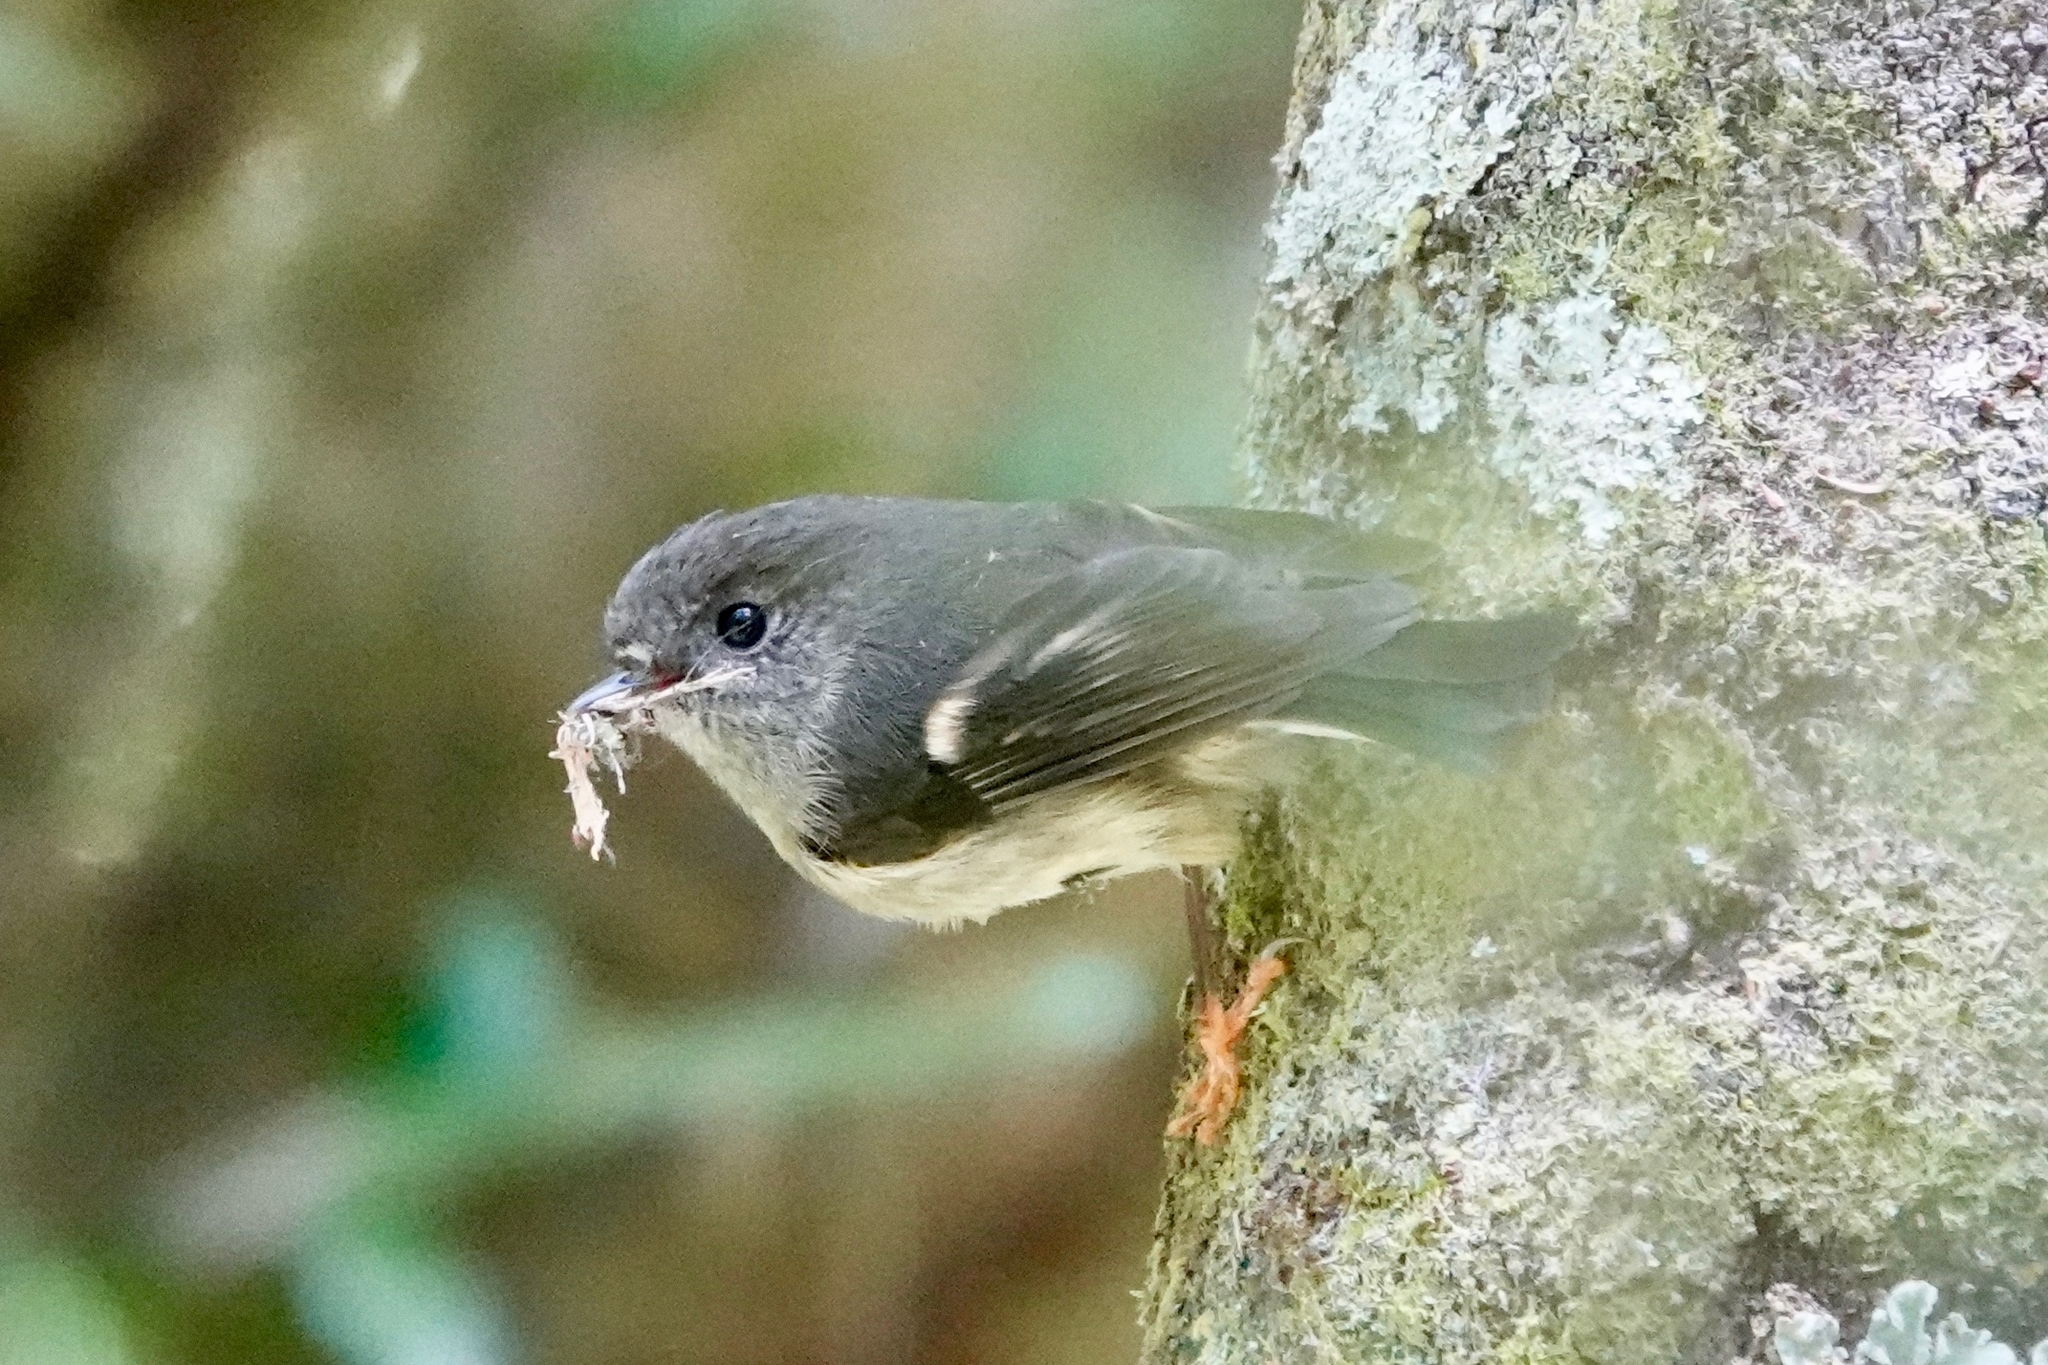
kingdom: Animalia
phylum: Chordata
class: Aves
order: Passeriformes
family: Petroicidae
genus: Petroica
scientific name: Petroica macrocephala
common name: Tomtit
